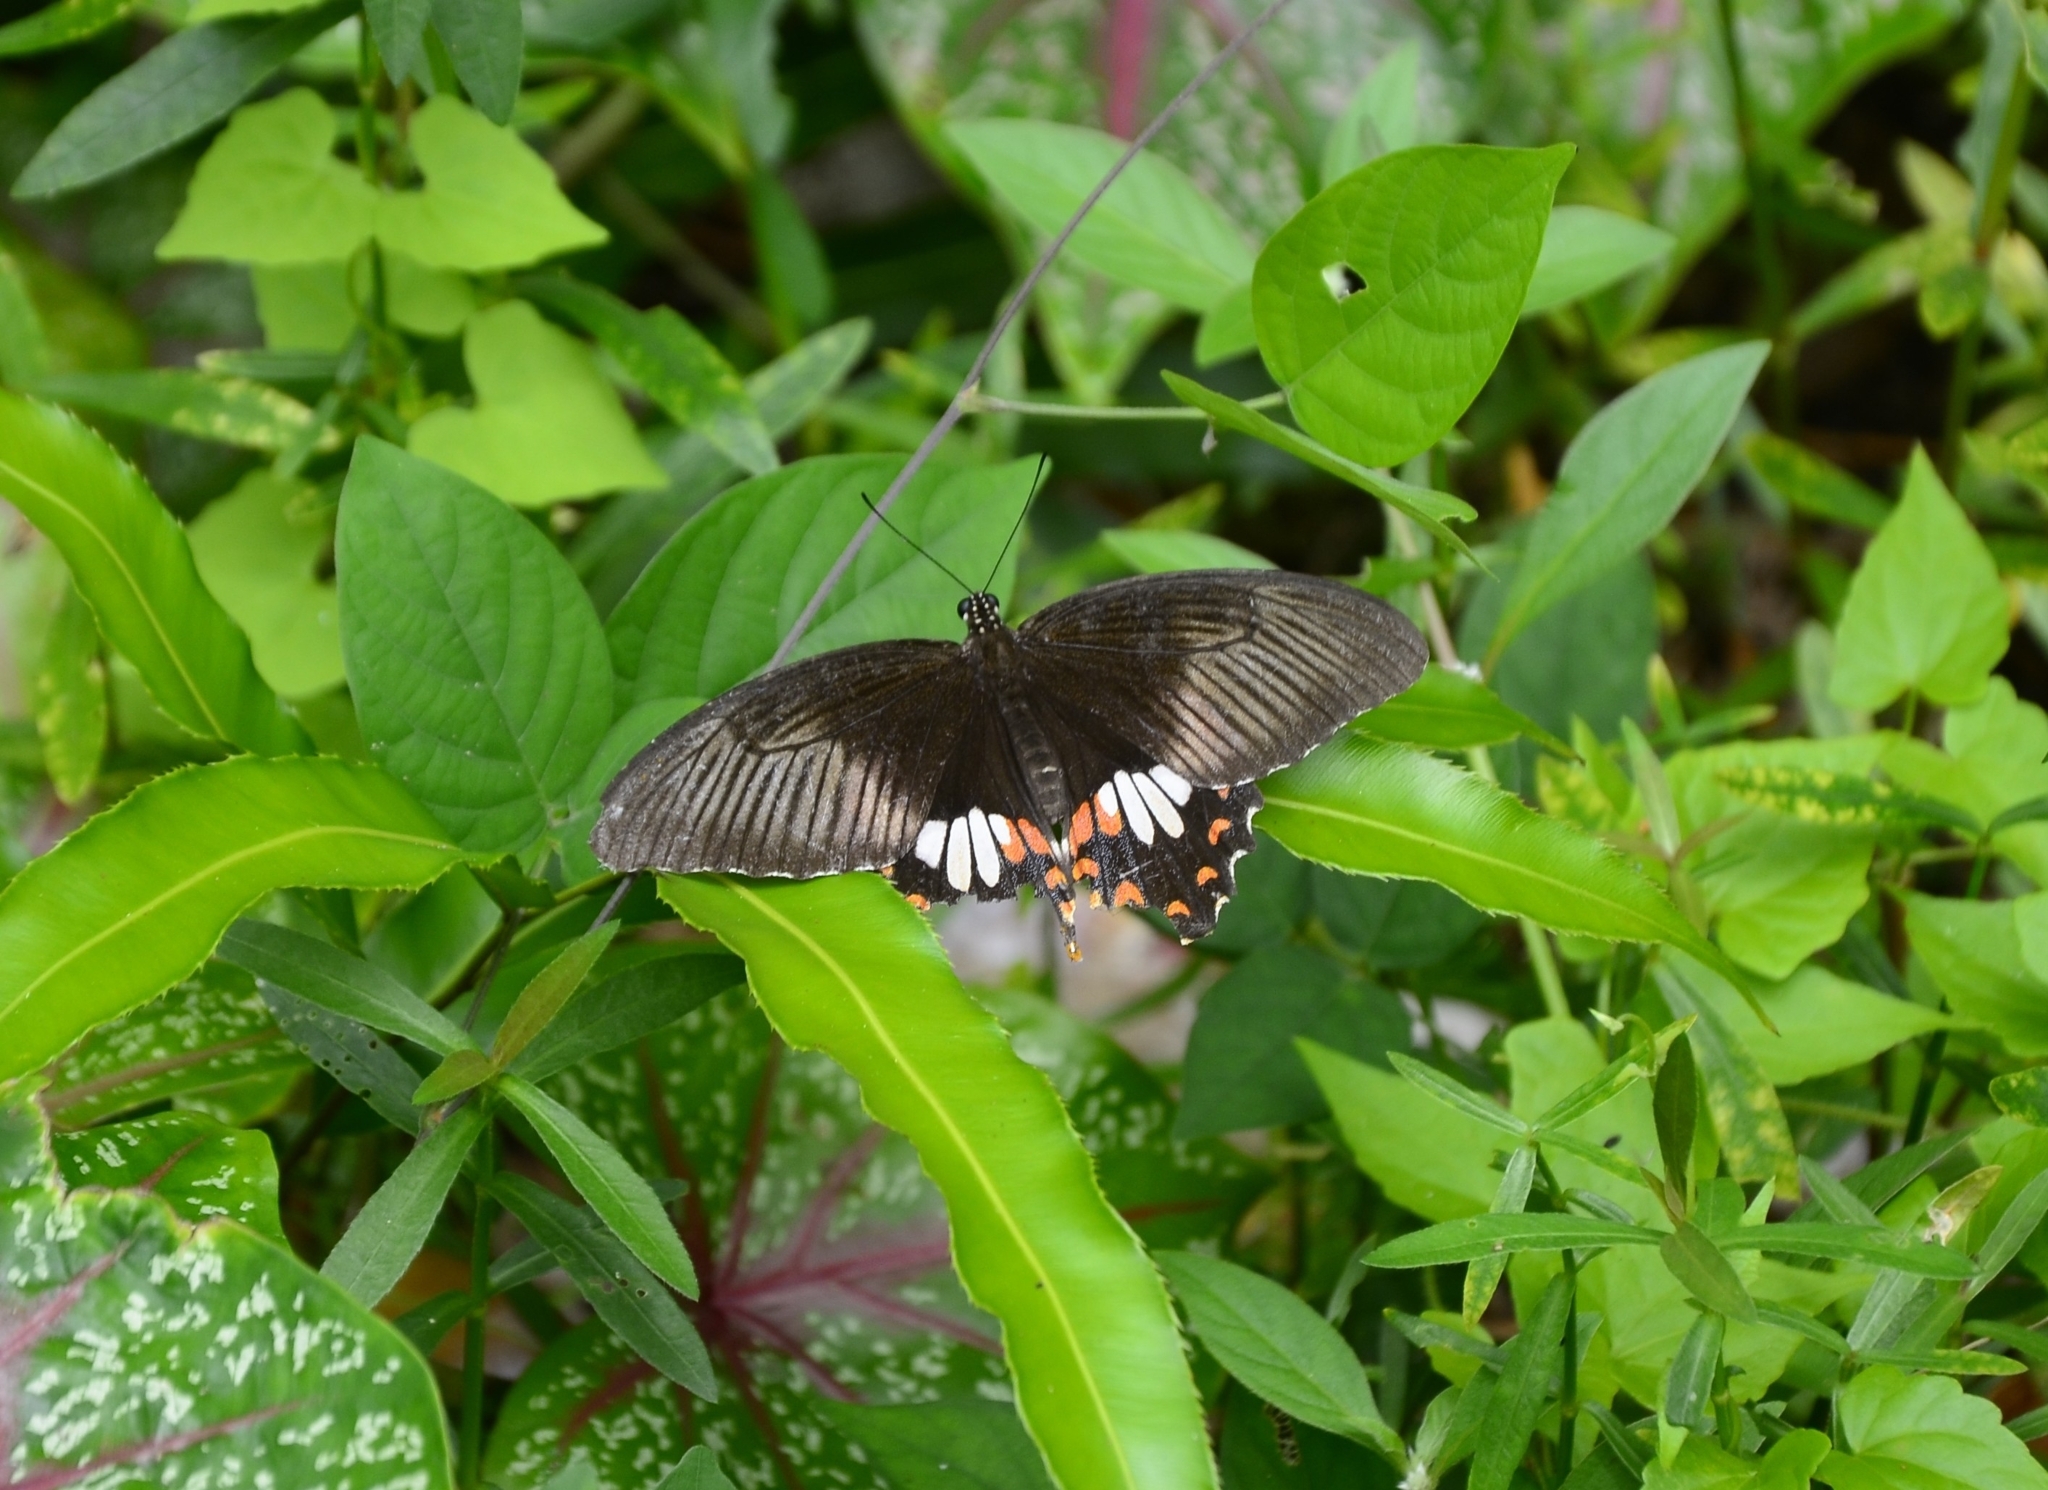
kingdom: Animalia
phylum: Arthropoda
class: Insecta
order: Lepidoptera
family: Papilionidae
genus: Papilio
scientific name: Papilio polytes
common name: Common mormon
